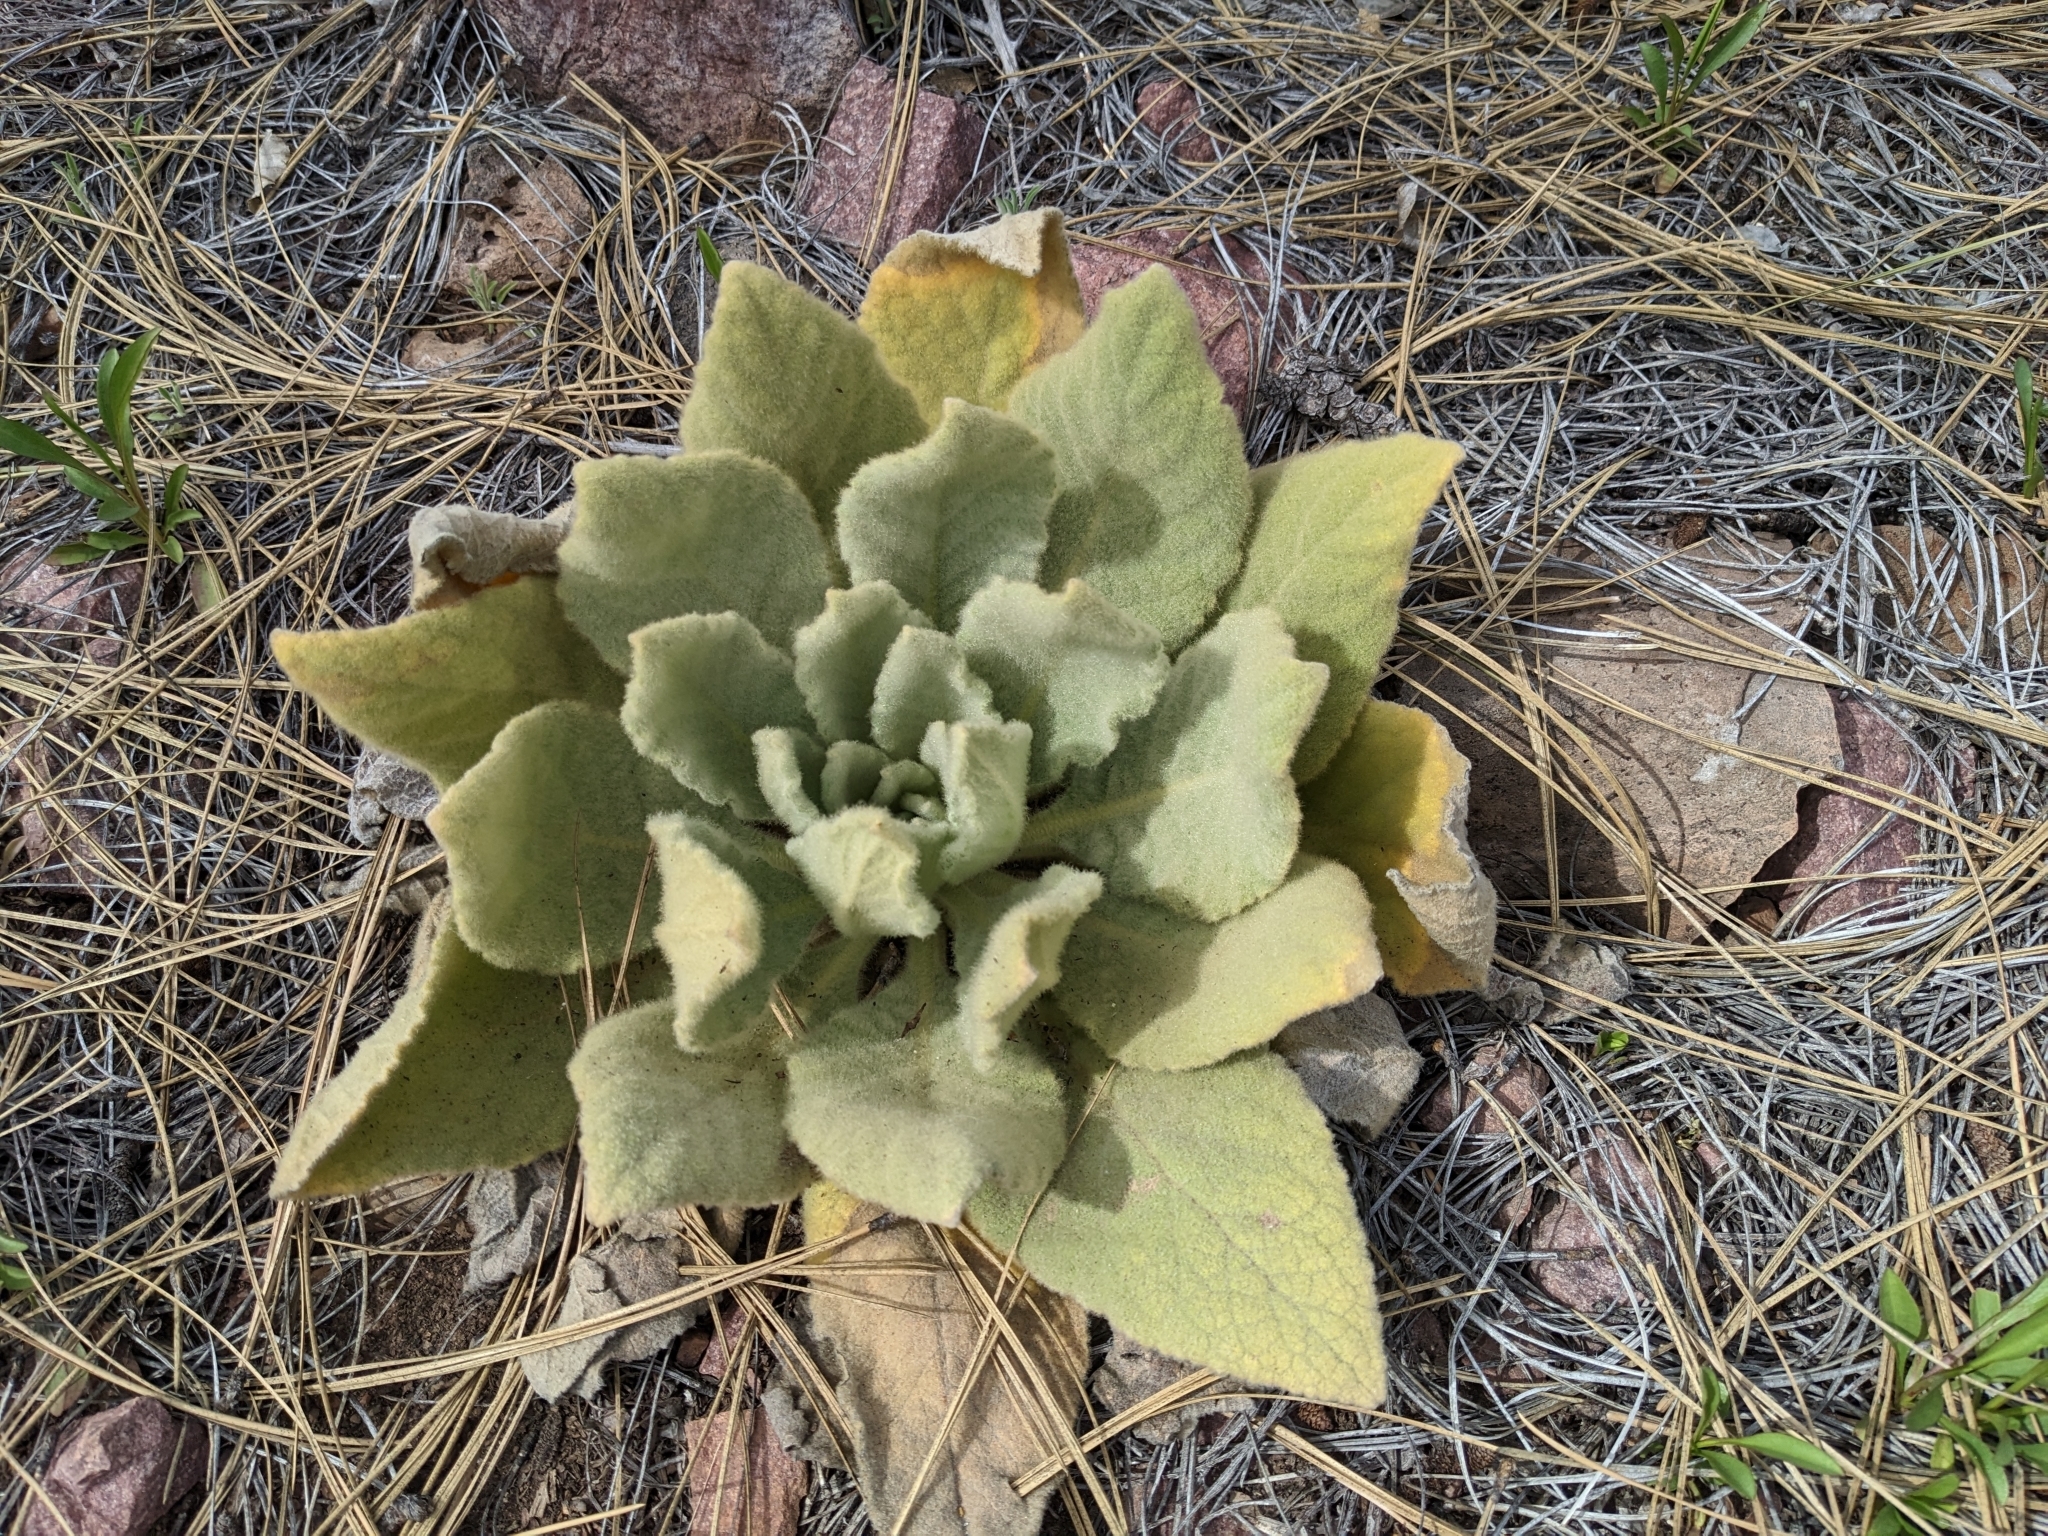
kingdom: Plantae
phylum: Tracheophyta
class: Magnoliopsida
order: Lamiales
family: Scrophulariaceae
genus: Verbascum
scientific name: Verbascum thapsus
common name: Common mullein
